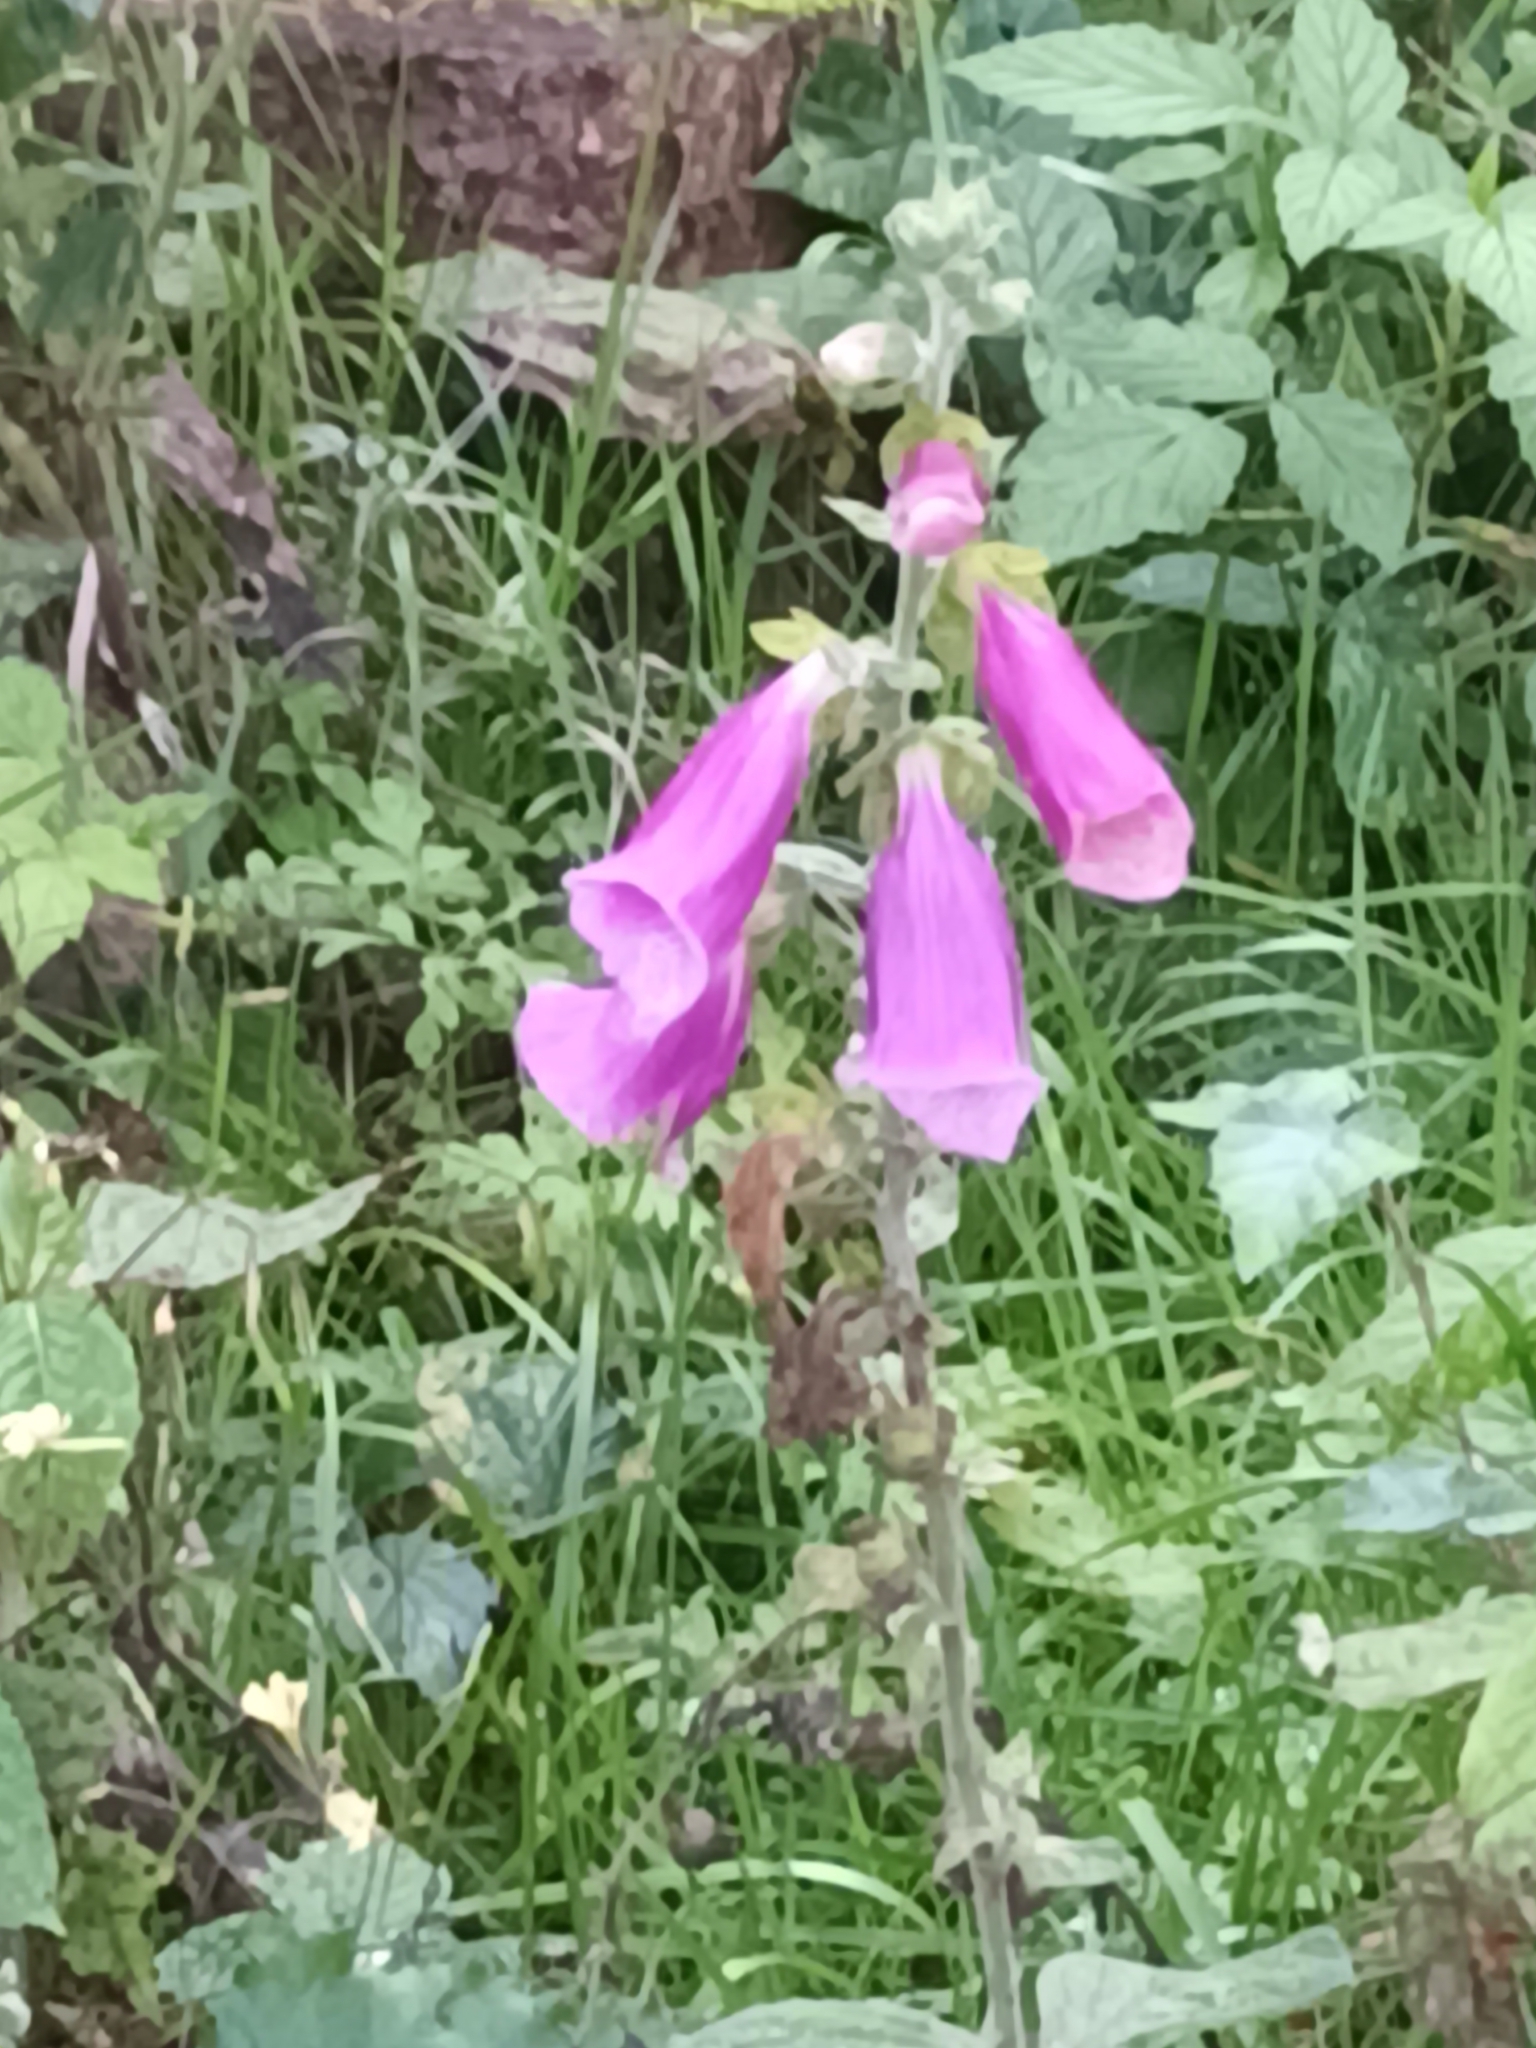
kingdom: Plantae
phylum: Tracheophyta
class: Magnoliopsida
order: Lamiales
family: Plantaginaceae
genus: Digitalis
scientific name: Digitalis purpurea
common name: Foxglove
